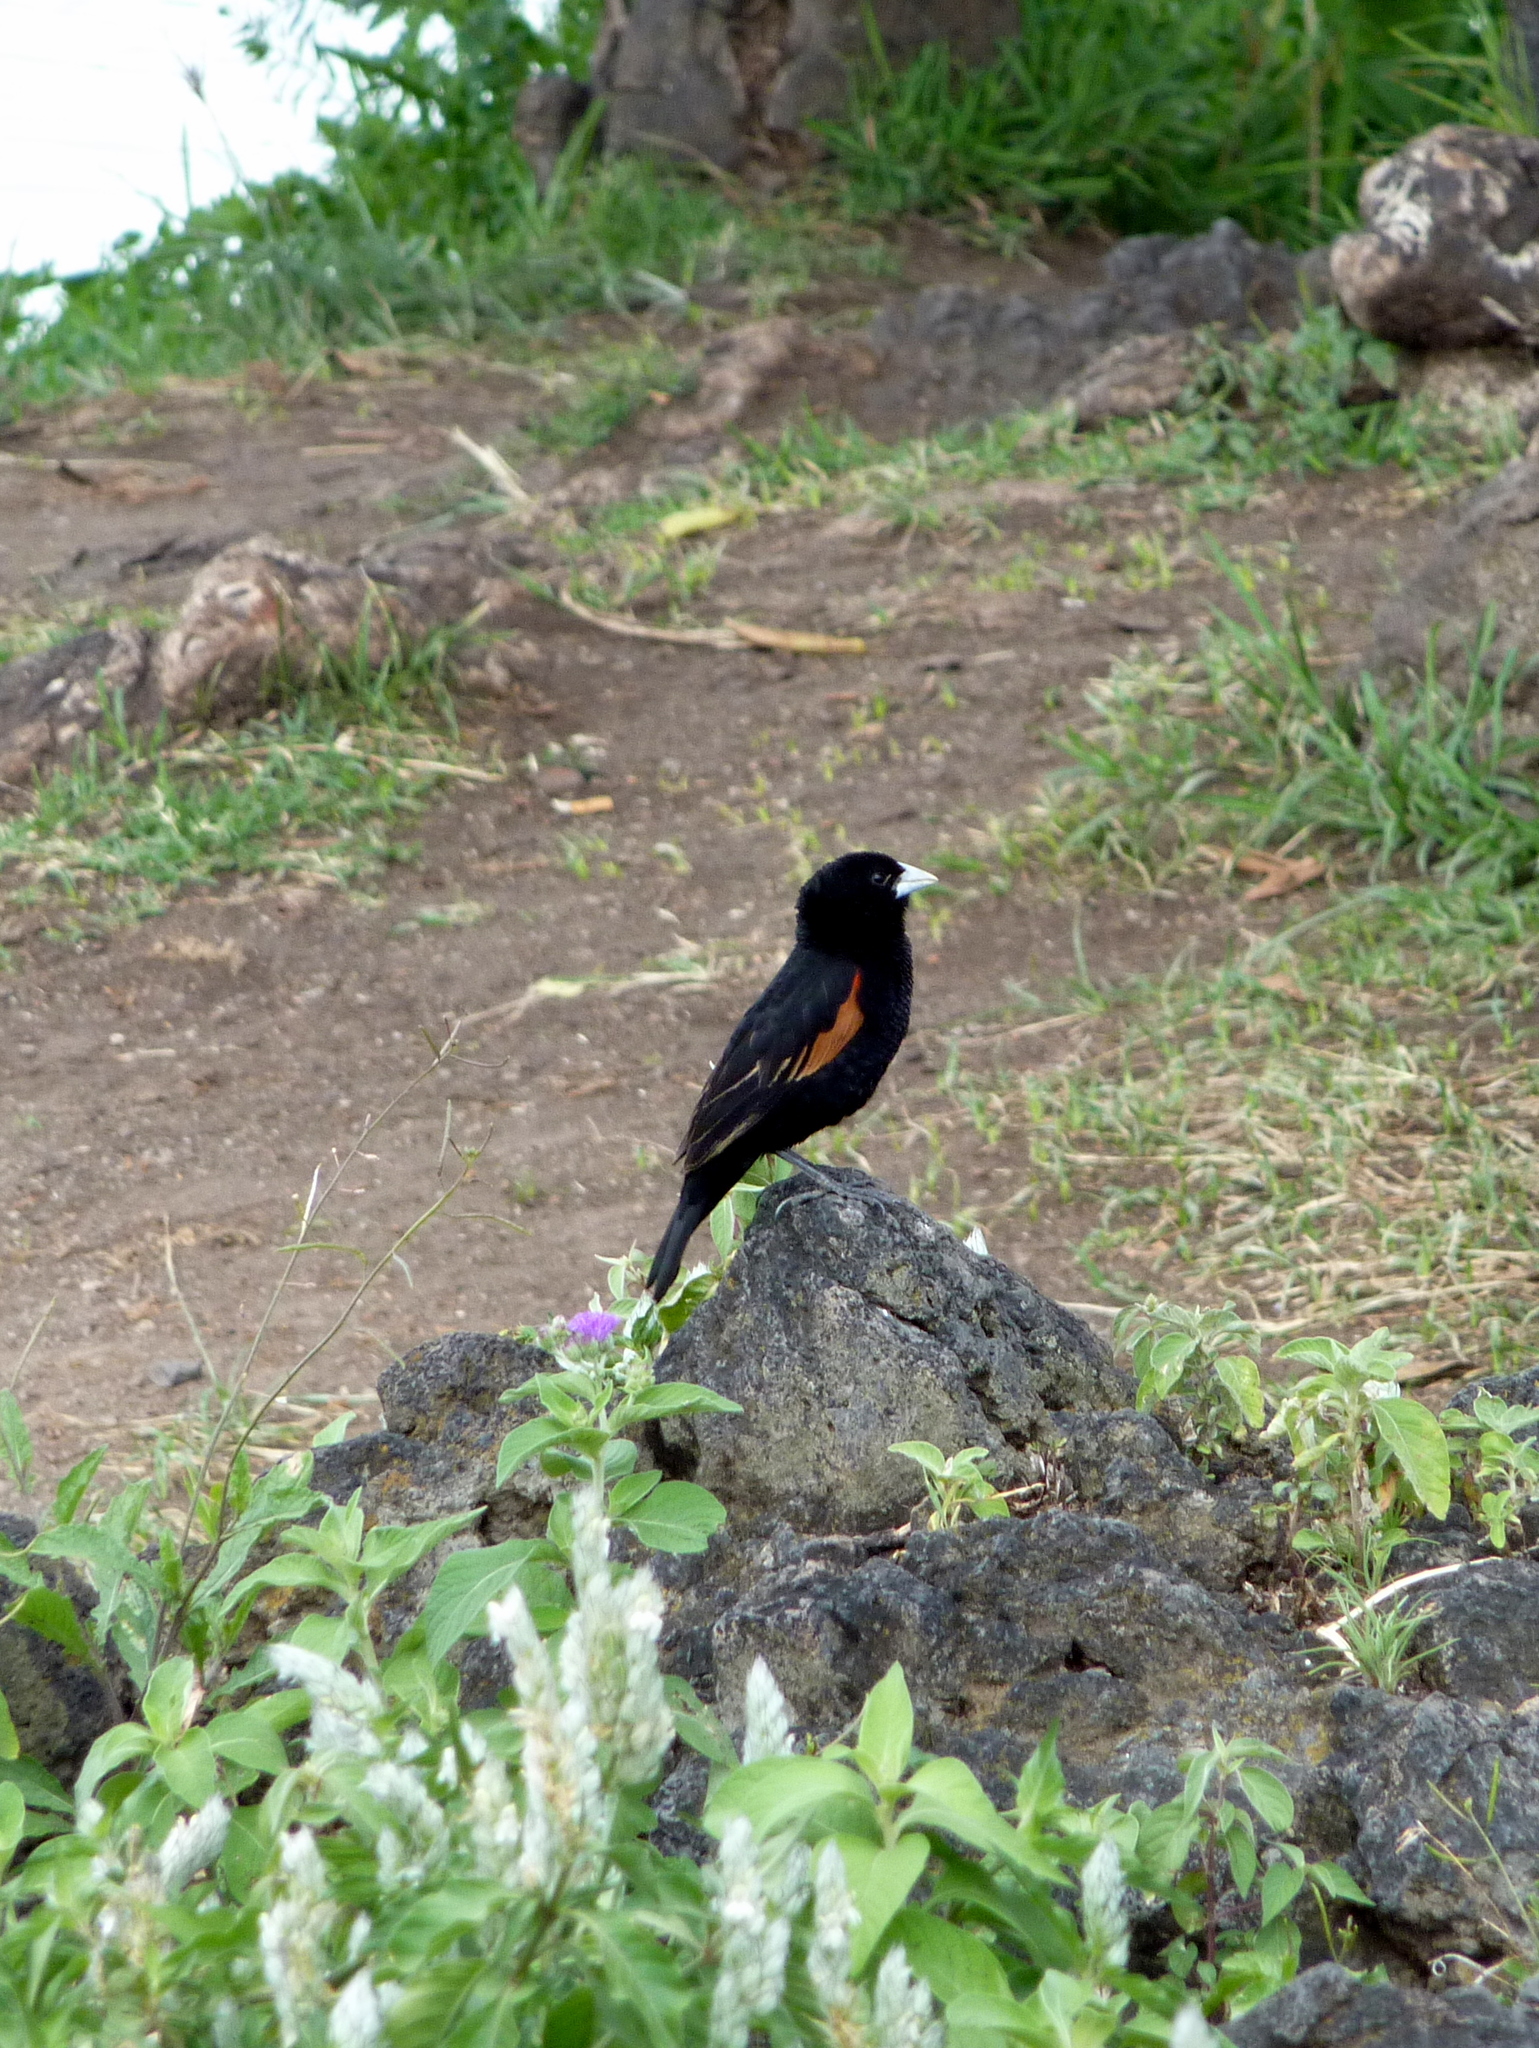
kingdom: Animalia
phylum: Chordata
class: Aves
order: Passeriformes
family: Ploceidae
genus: Euplectes
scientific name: Euplectes axillaris
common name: Fan-tailed widowbird
